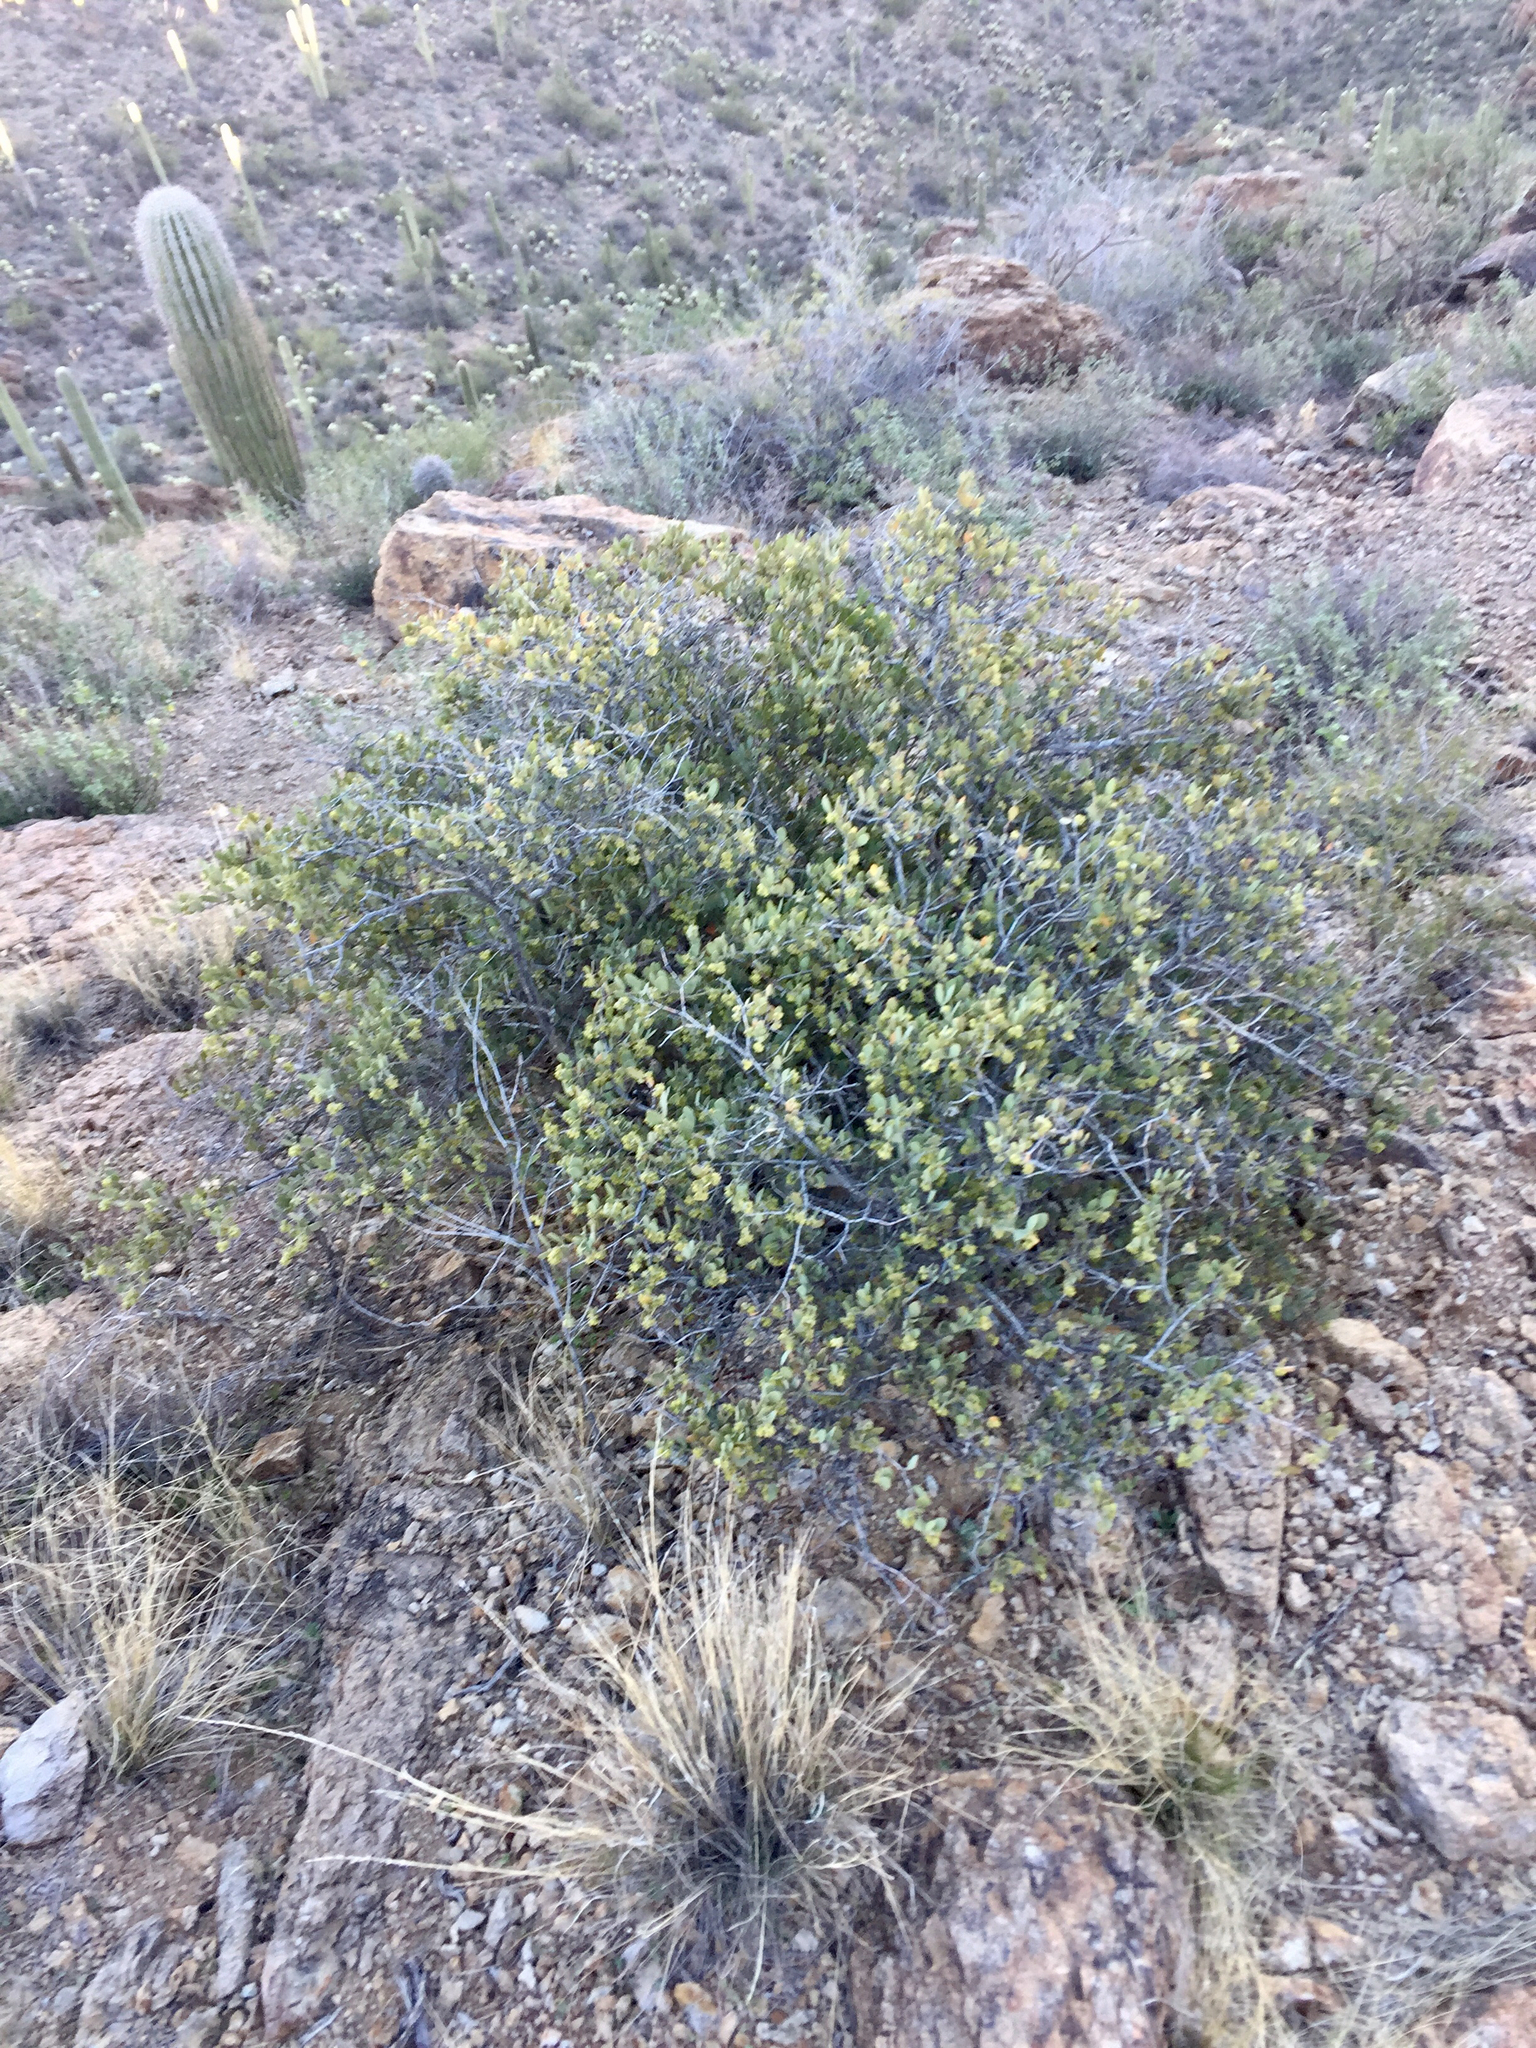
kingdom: Plantae
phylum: Tracheophyta
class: Magnoliopsida
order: Caryophyllales
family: Simmondsiaceae
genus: Simmondsia
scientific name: Simmondsia chinensis
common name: Jojoba
